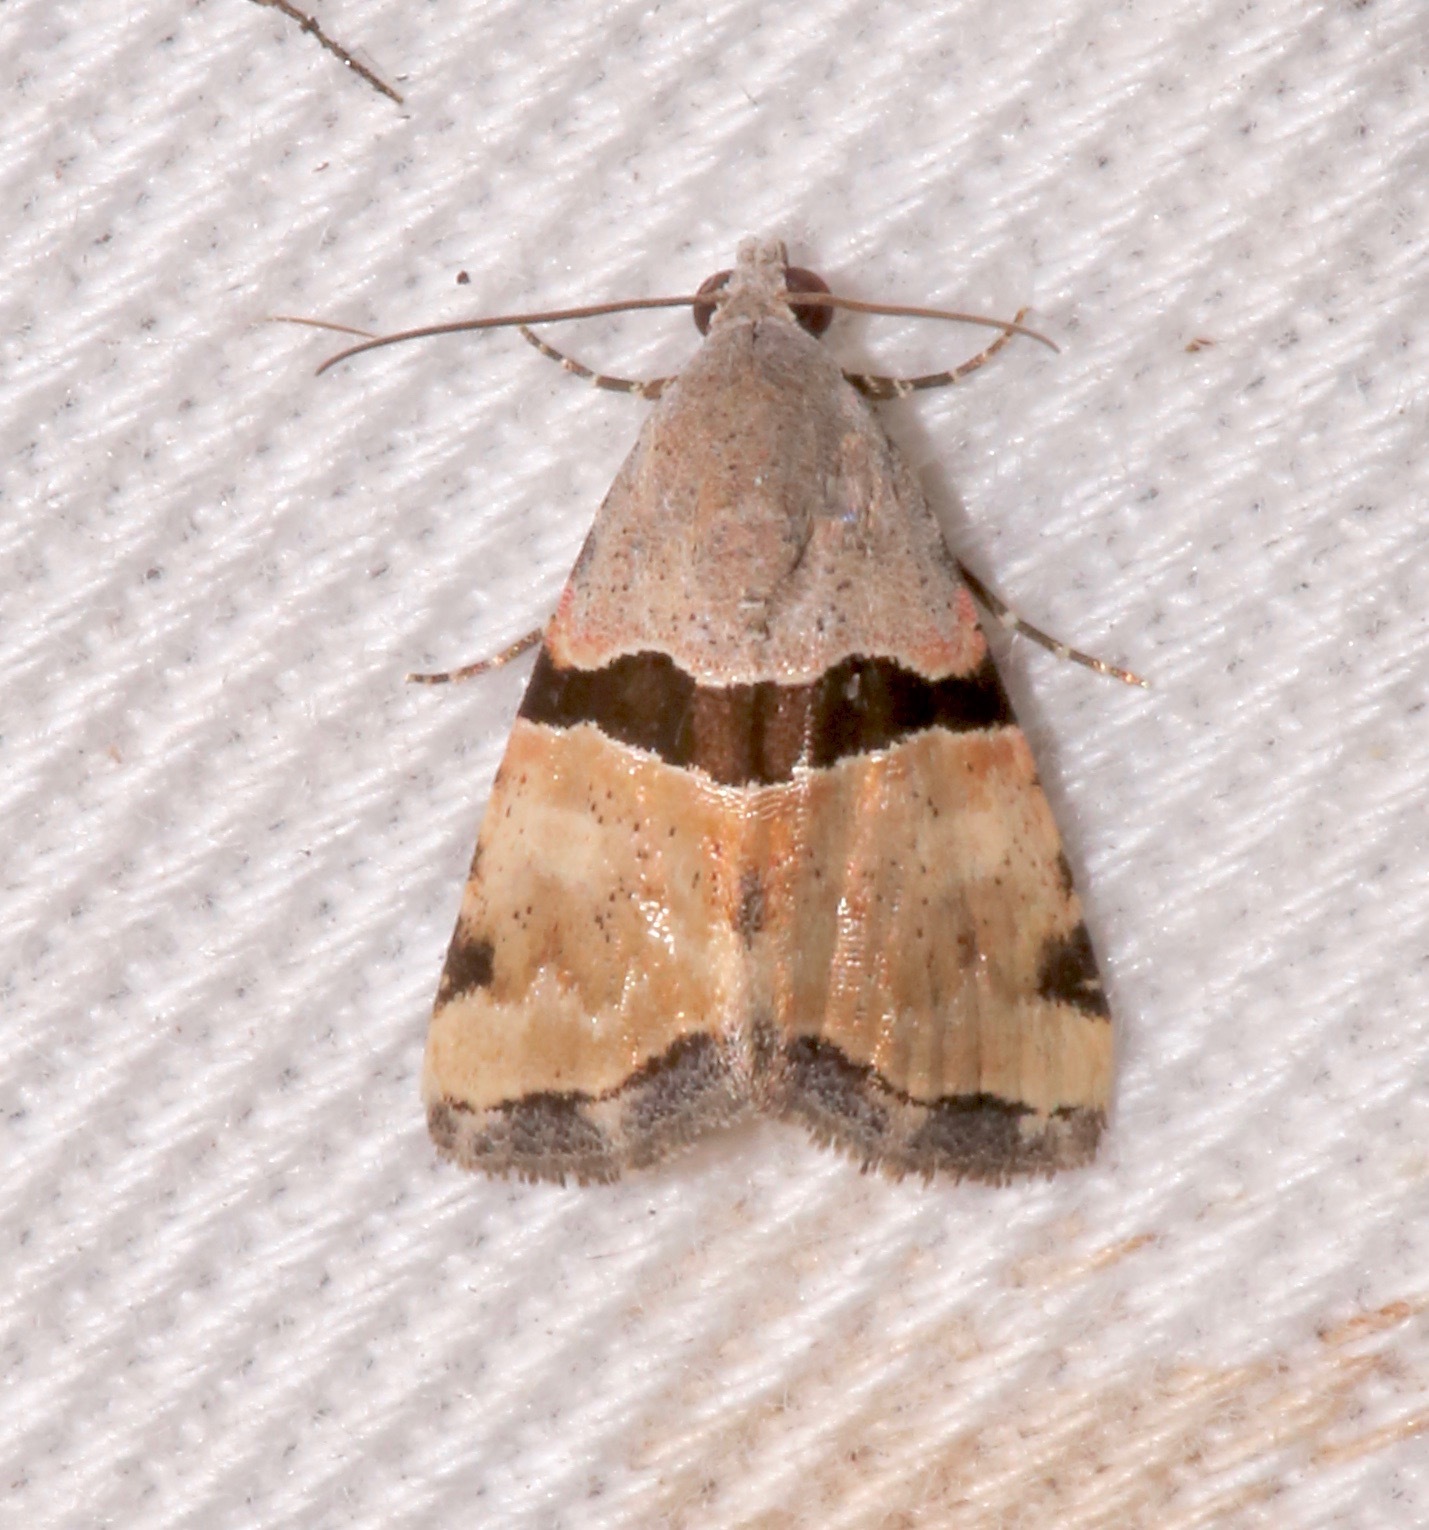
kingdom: Animalia
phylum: Arthropoda
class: Insecta
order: Lepidoptera
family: Noctuidae
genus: Cobubatha
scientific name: Cobubatha lixiva
